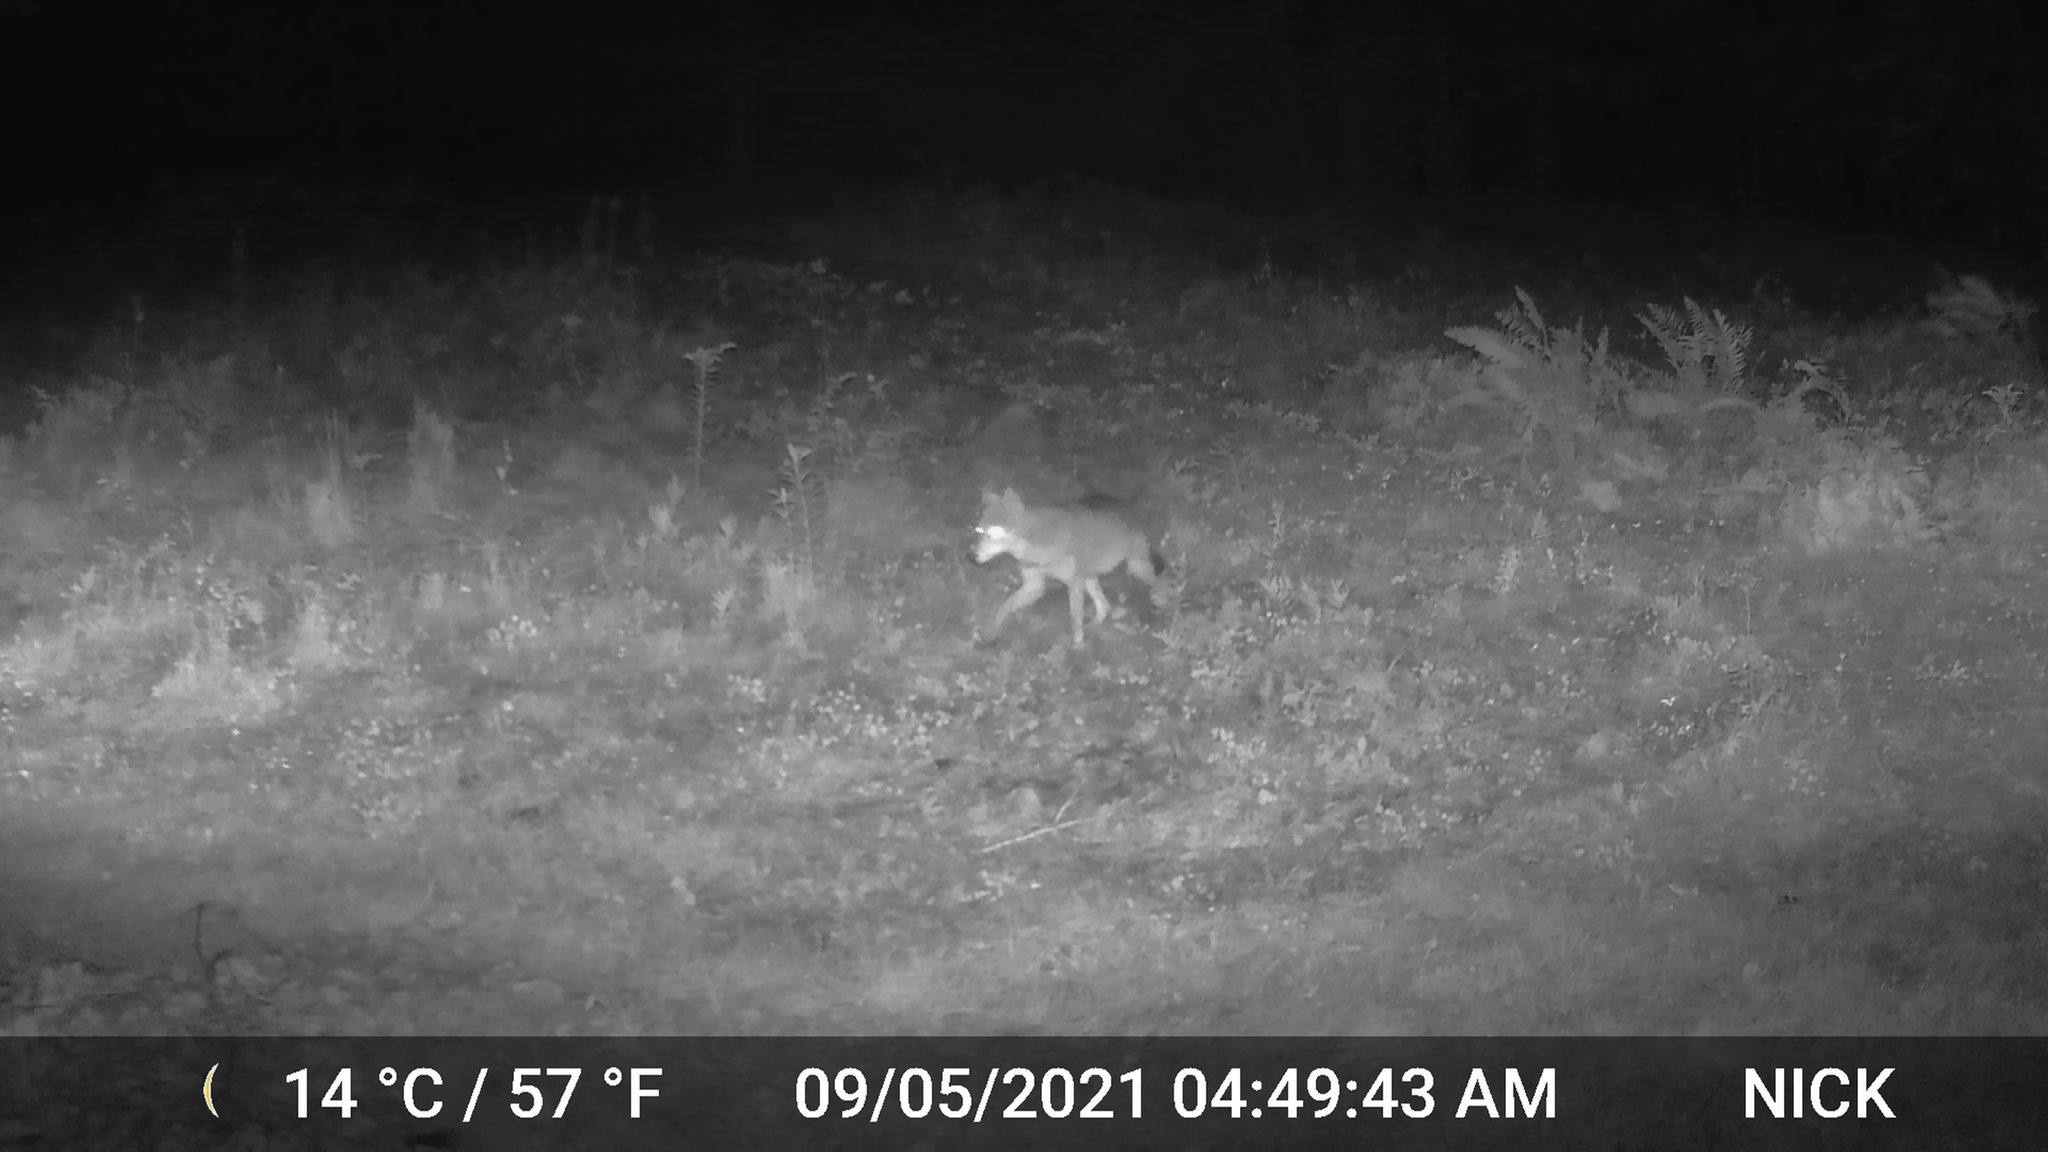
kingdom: Animalia
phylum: Chordata
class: Mammalia
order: Carnivora
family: Canidae
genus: Canis
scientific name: Canis latrans
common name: Coyote
